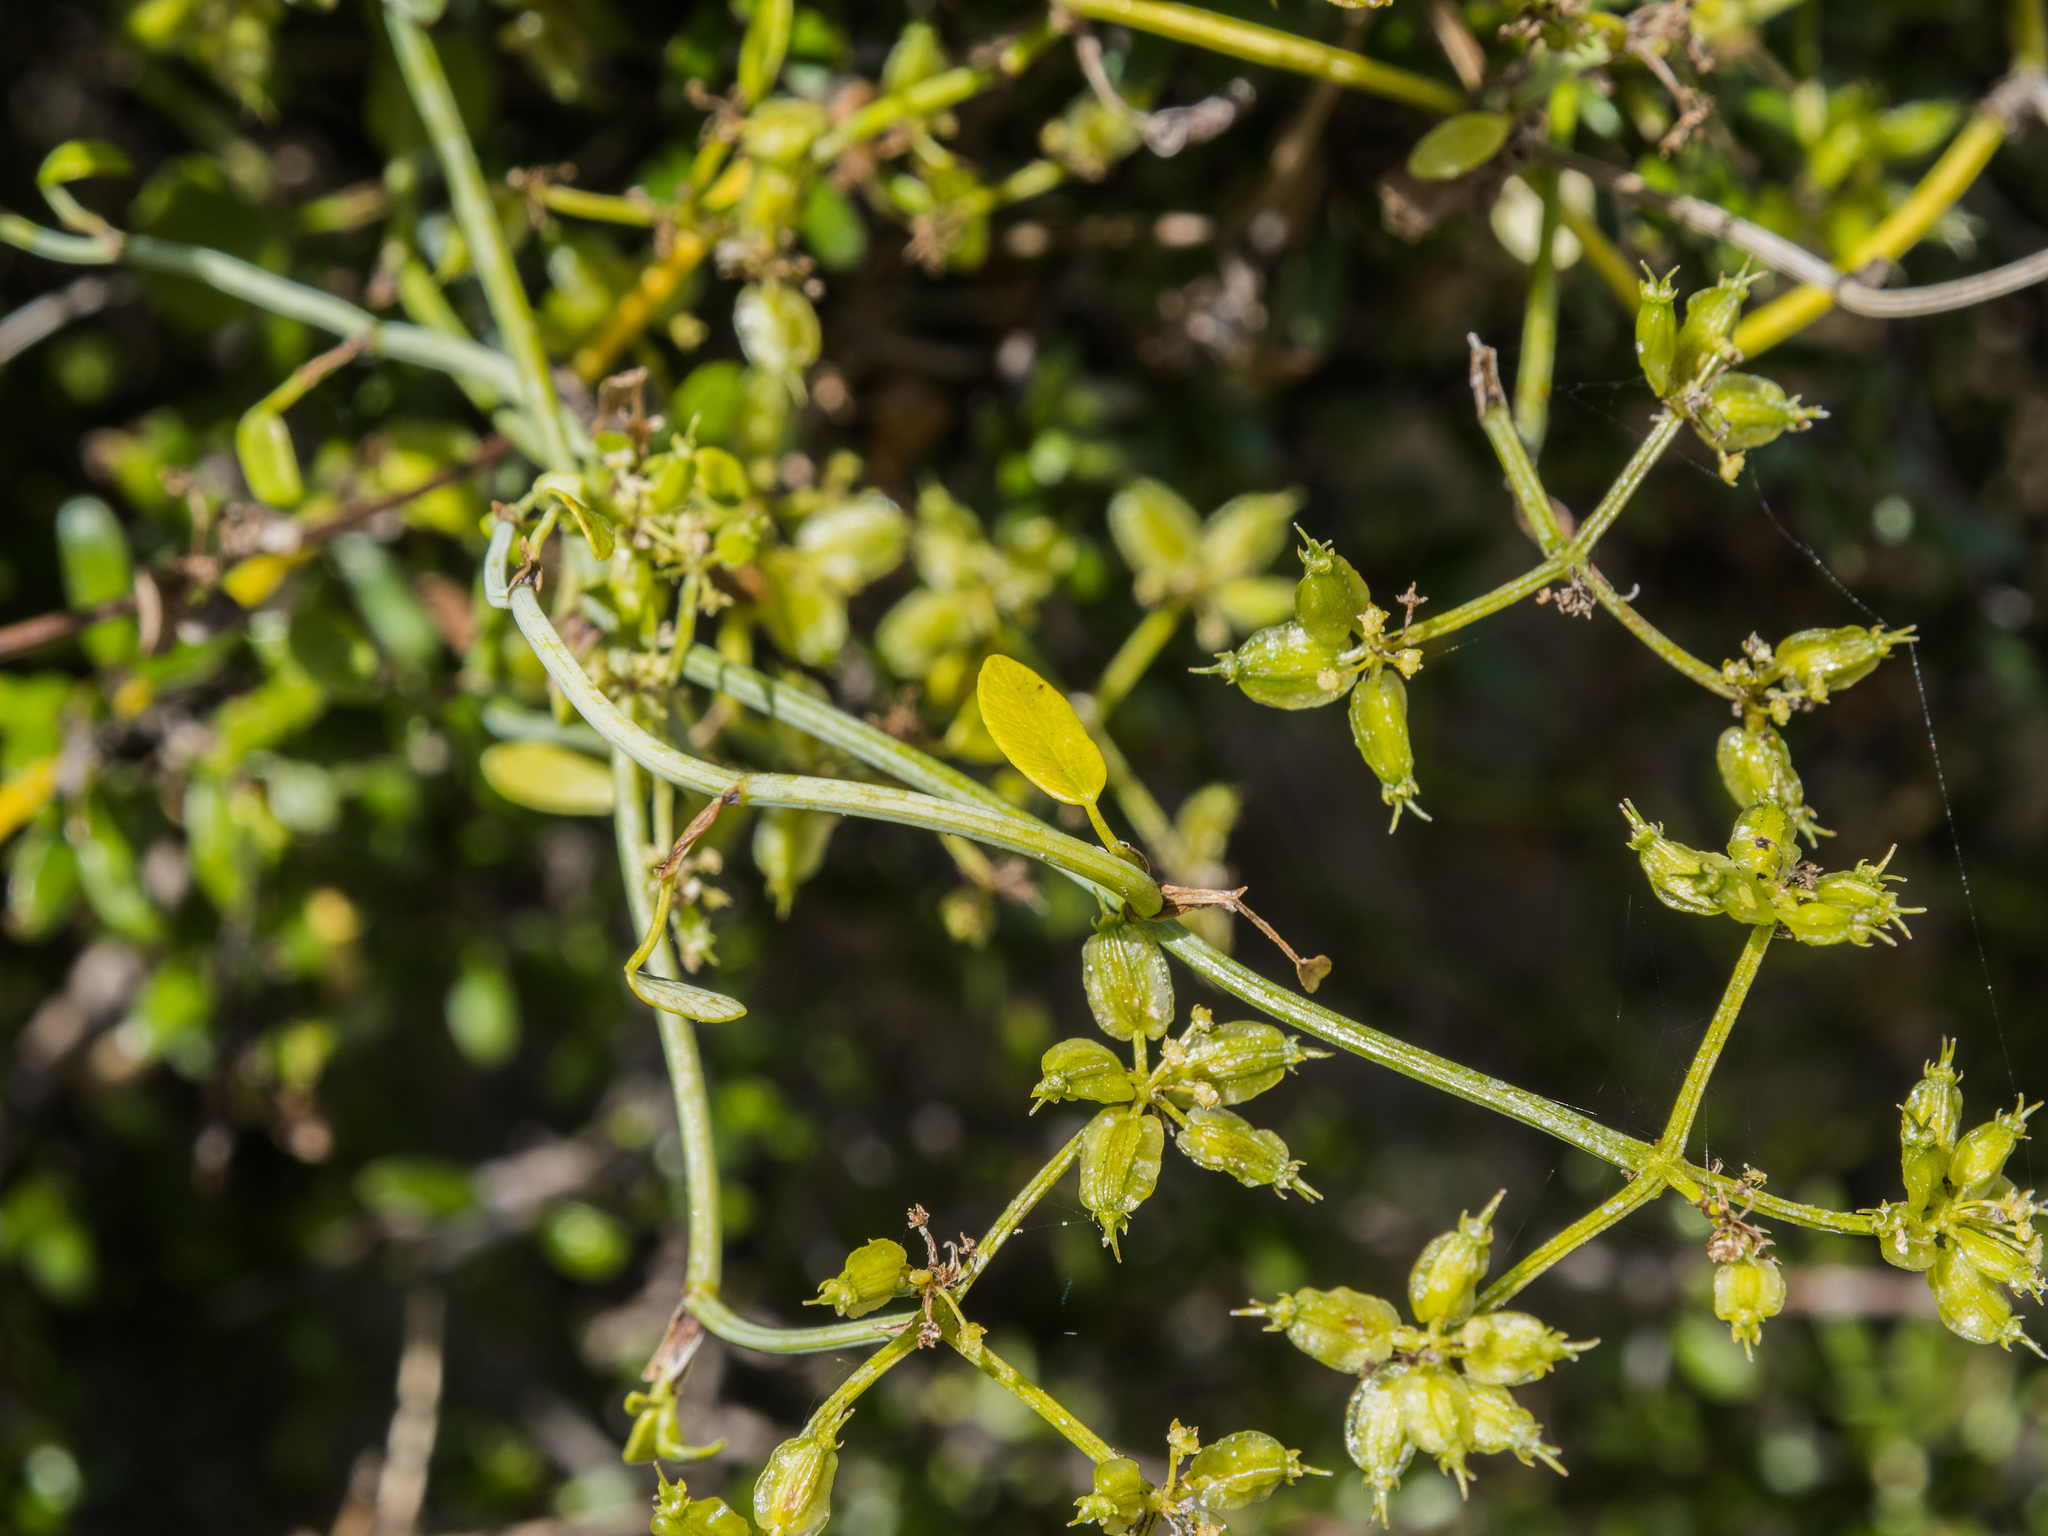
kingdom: Plantae
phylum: Tracheophyta
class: Magnoliopsida
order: Apiales
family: Apiaceae
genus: Scandia
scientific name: Scandia geniculata
